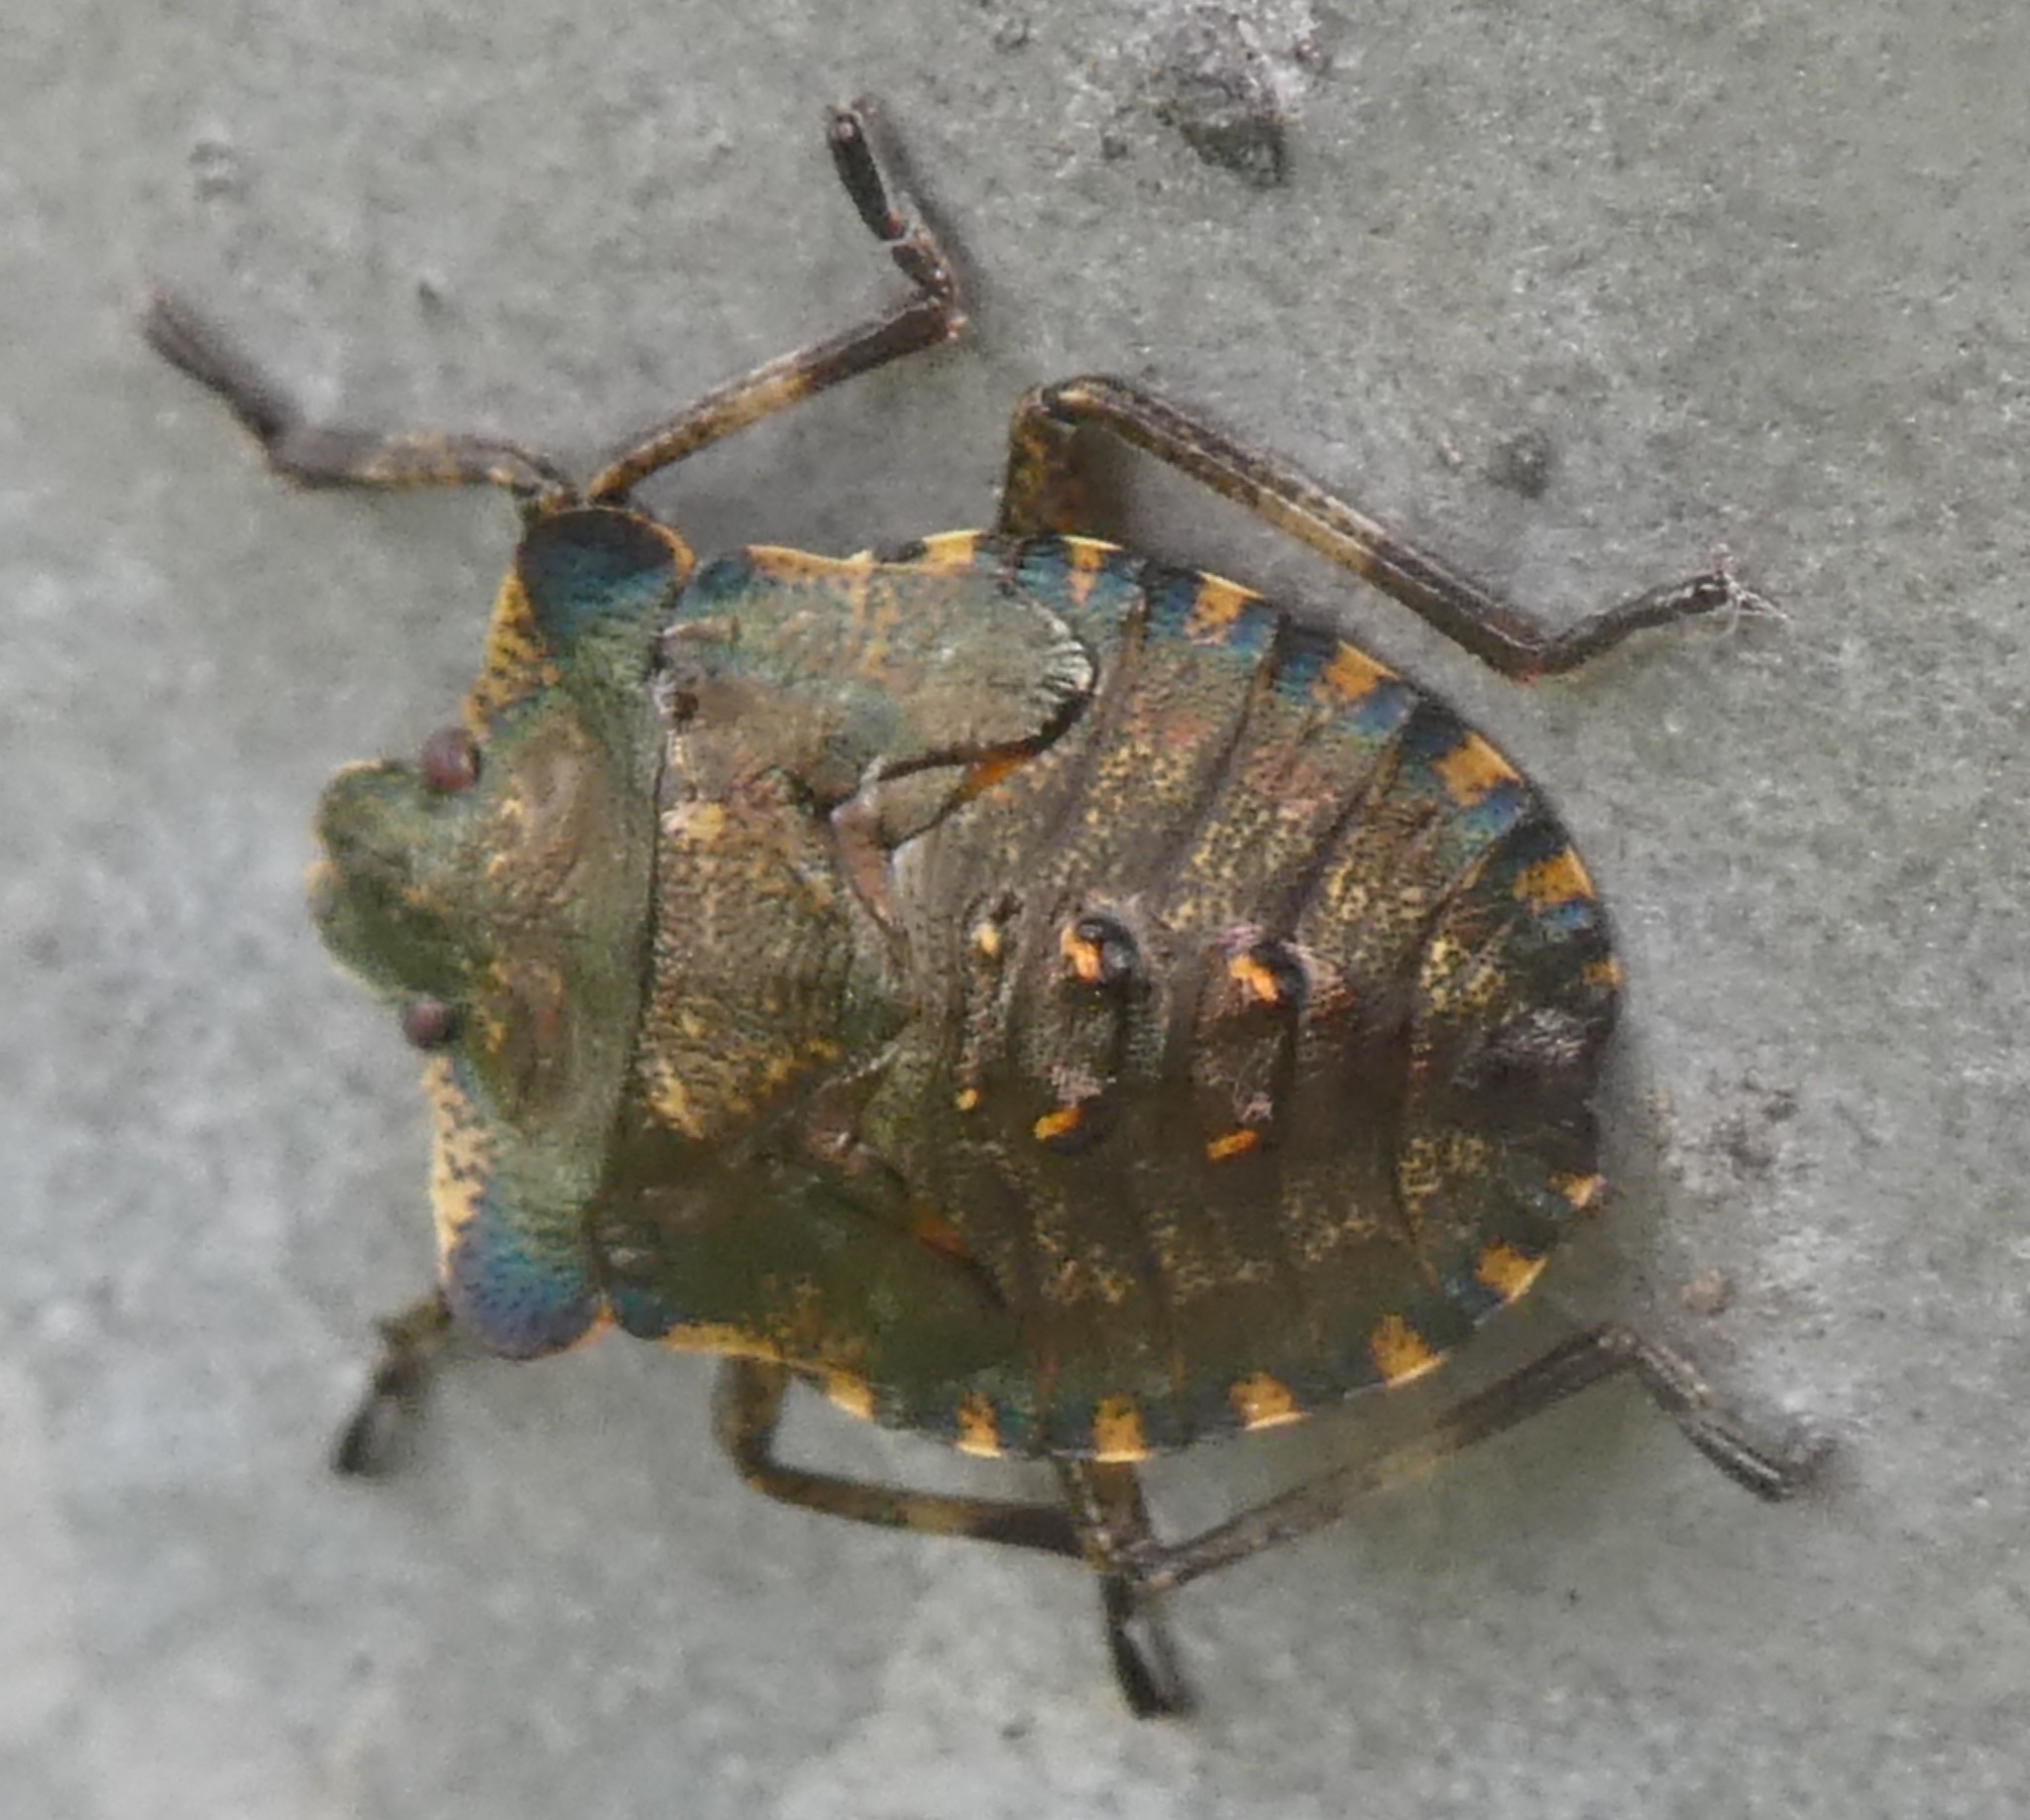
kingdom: Animalia
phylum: Arthropoda
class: Insecta
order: Hemiptera
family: Pentatomidae
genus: Pentatoma
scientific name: Pentatoma rufipes
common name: Forest bug
